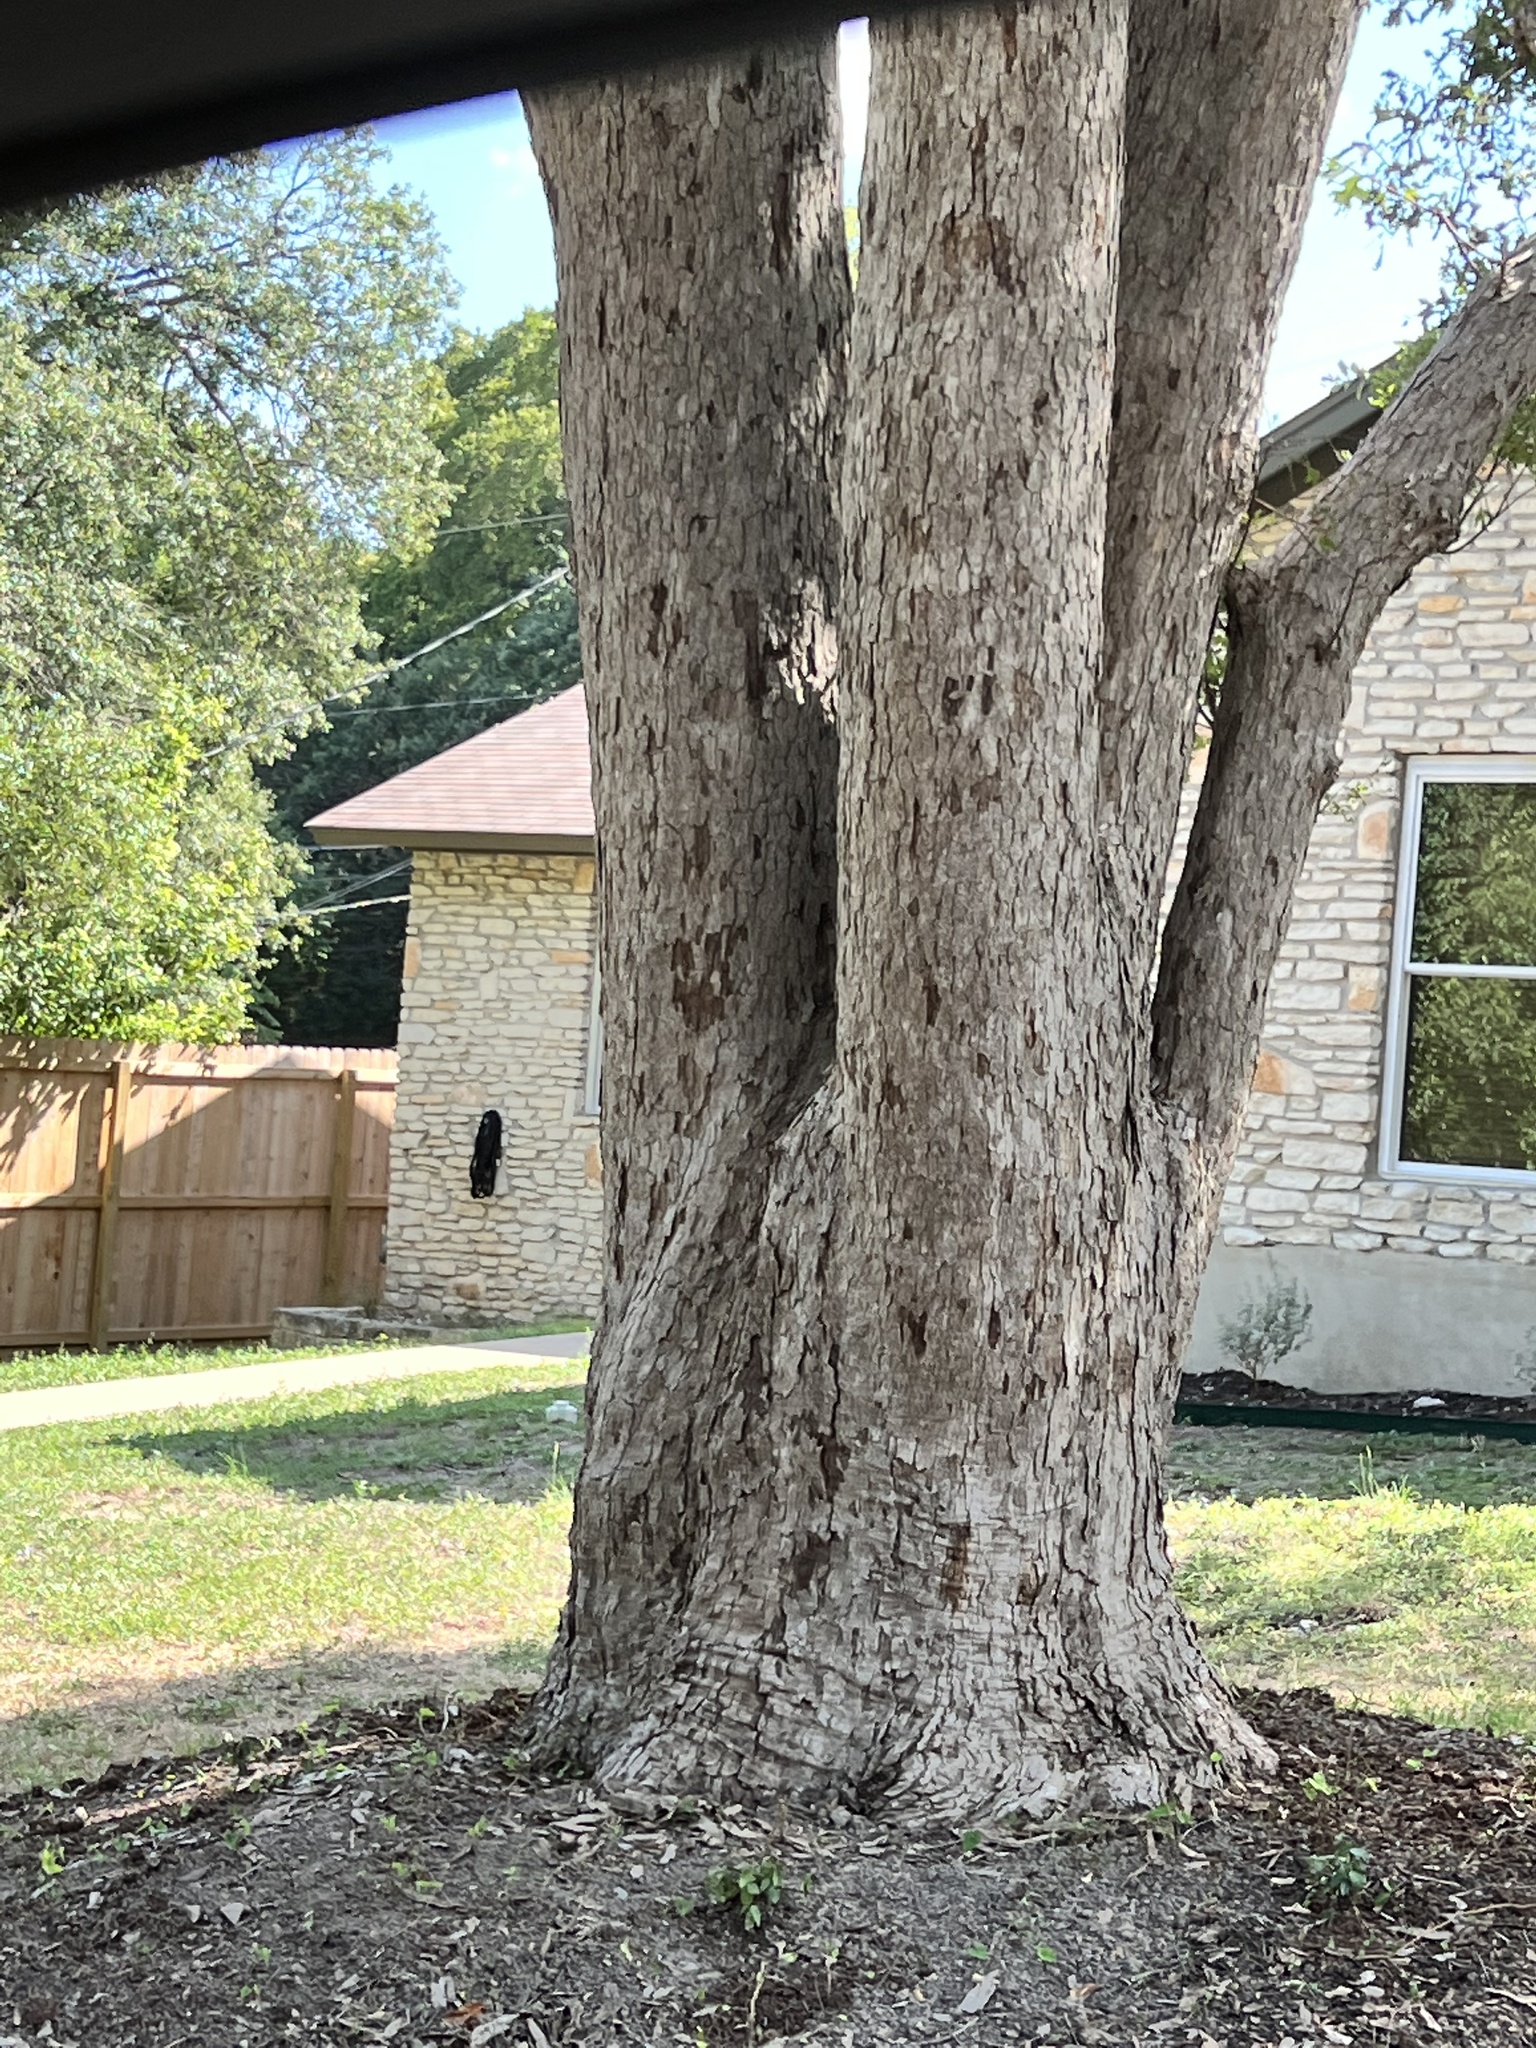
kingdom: Plantae
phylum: Tracheophyta
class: Magnoliopsida
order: Fagales
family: Fagaceae
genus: Quercus
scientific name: Quercus sinuata
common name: Durand oak
